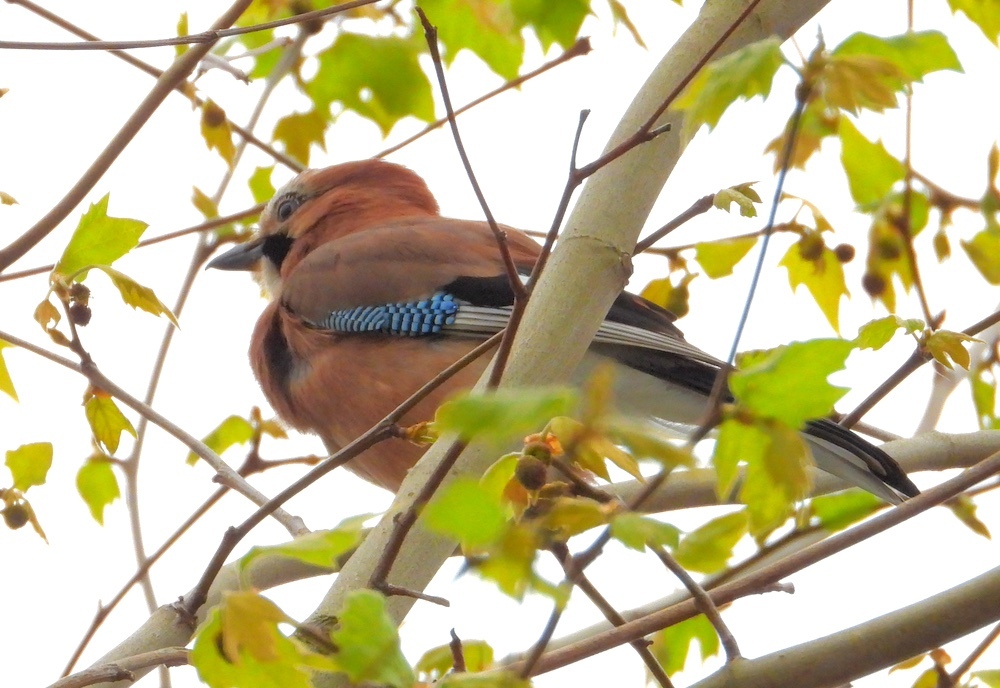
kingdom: Animalia
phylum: Chordata
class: Aves
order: Passeriformes
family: Corvidae
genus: Garrulus
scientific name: Garrulus glandarius
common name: Eurasian jay
